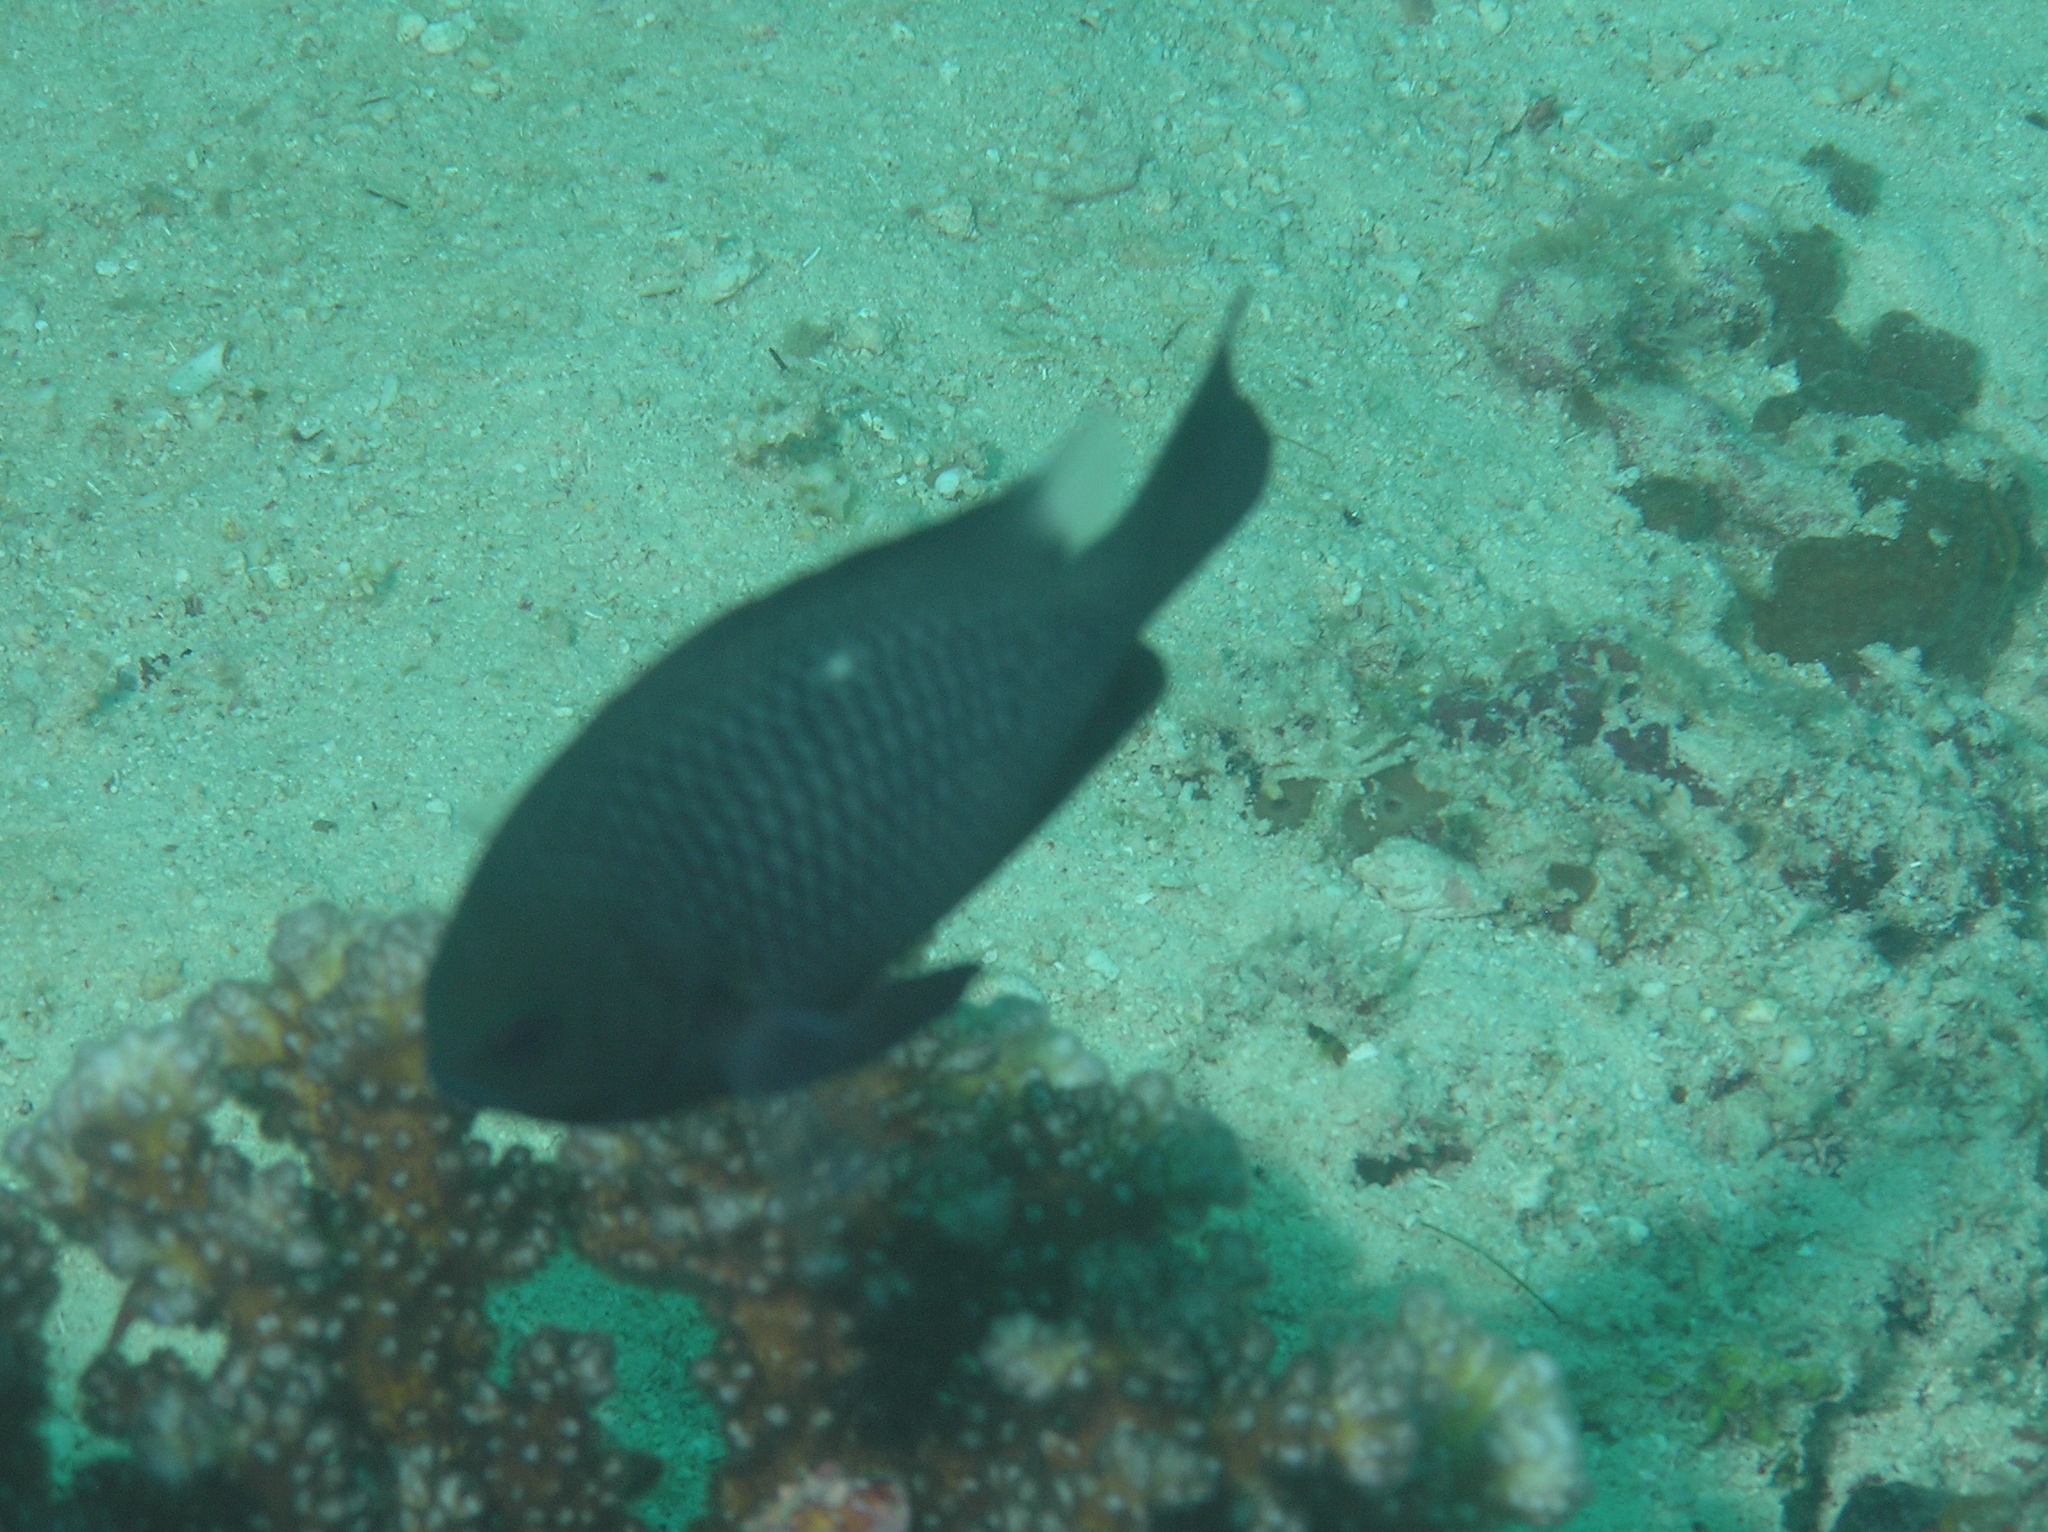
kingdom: Animalia
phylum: Chordata
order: Perciformes
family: Pomacentridae
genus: Dascyllus
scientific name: Dascyllus trimaculatus
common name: Threespot dascyllus
